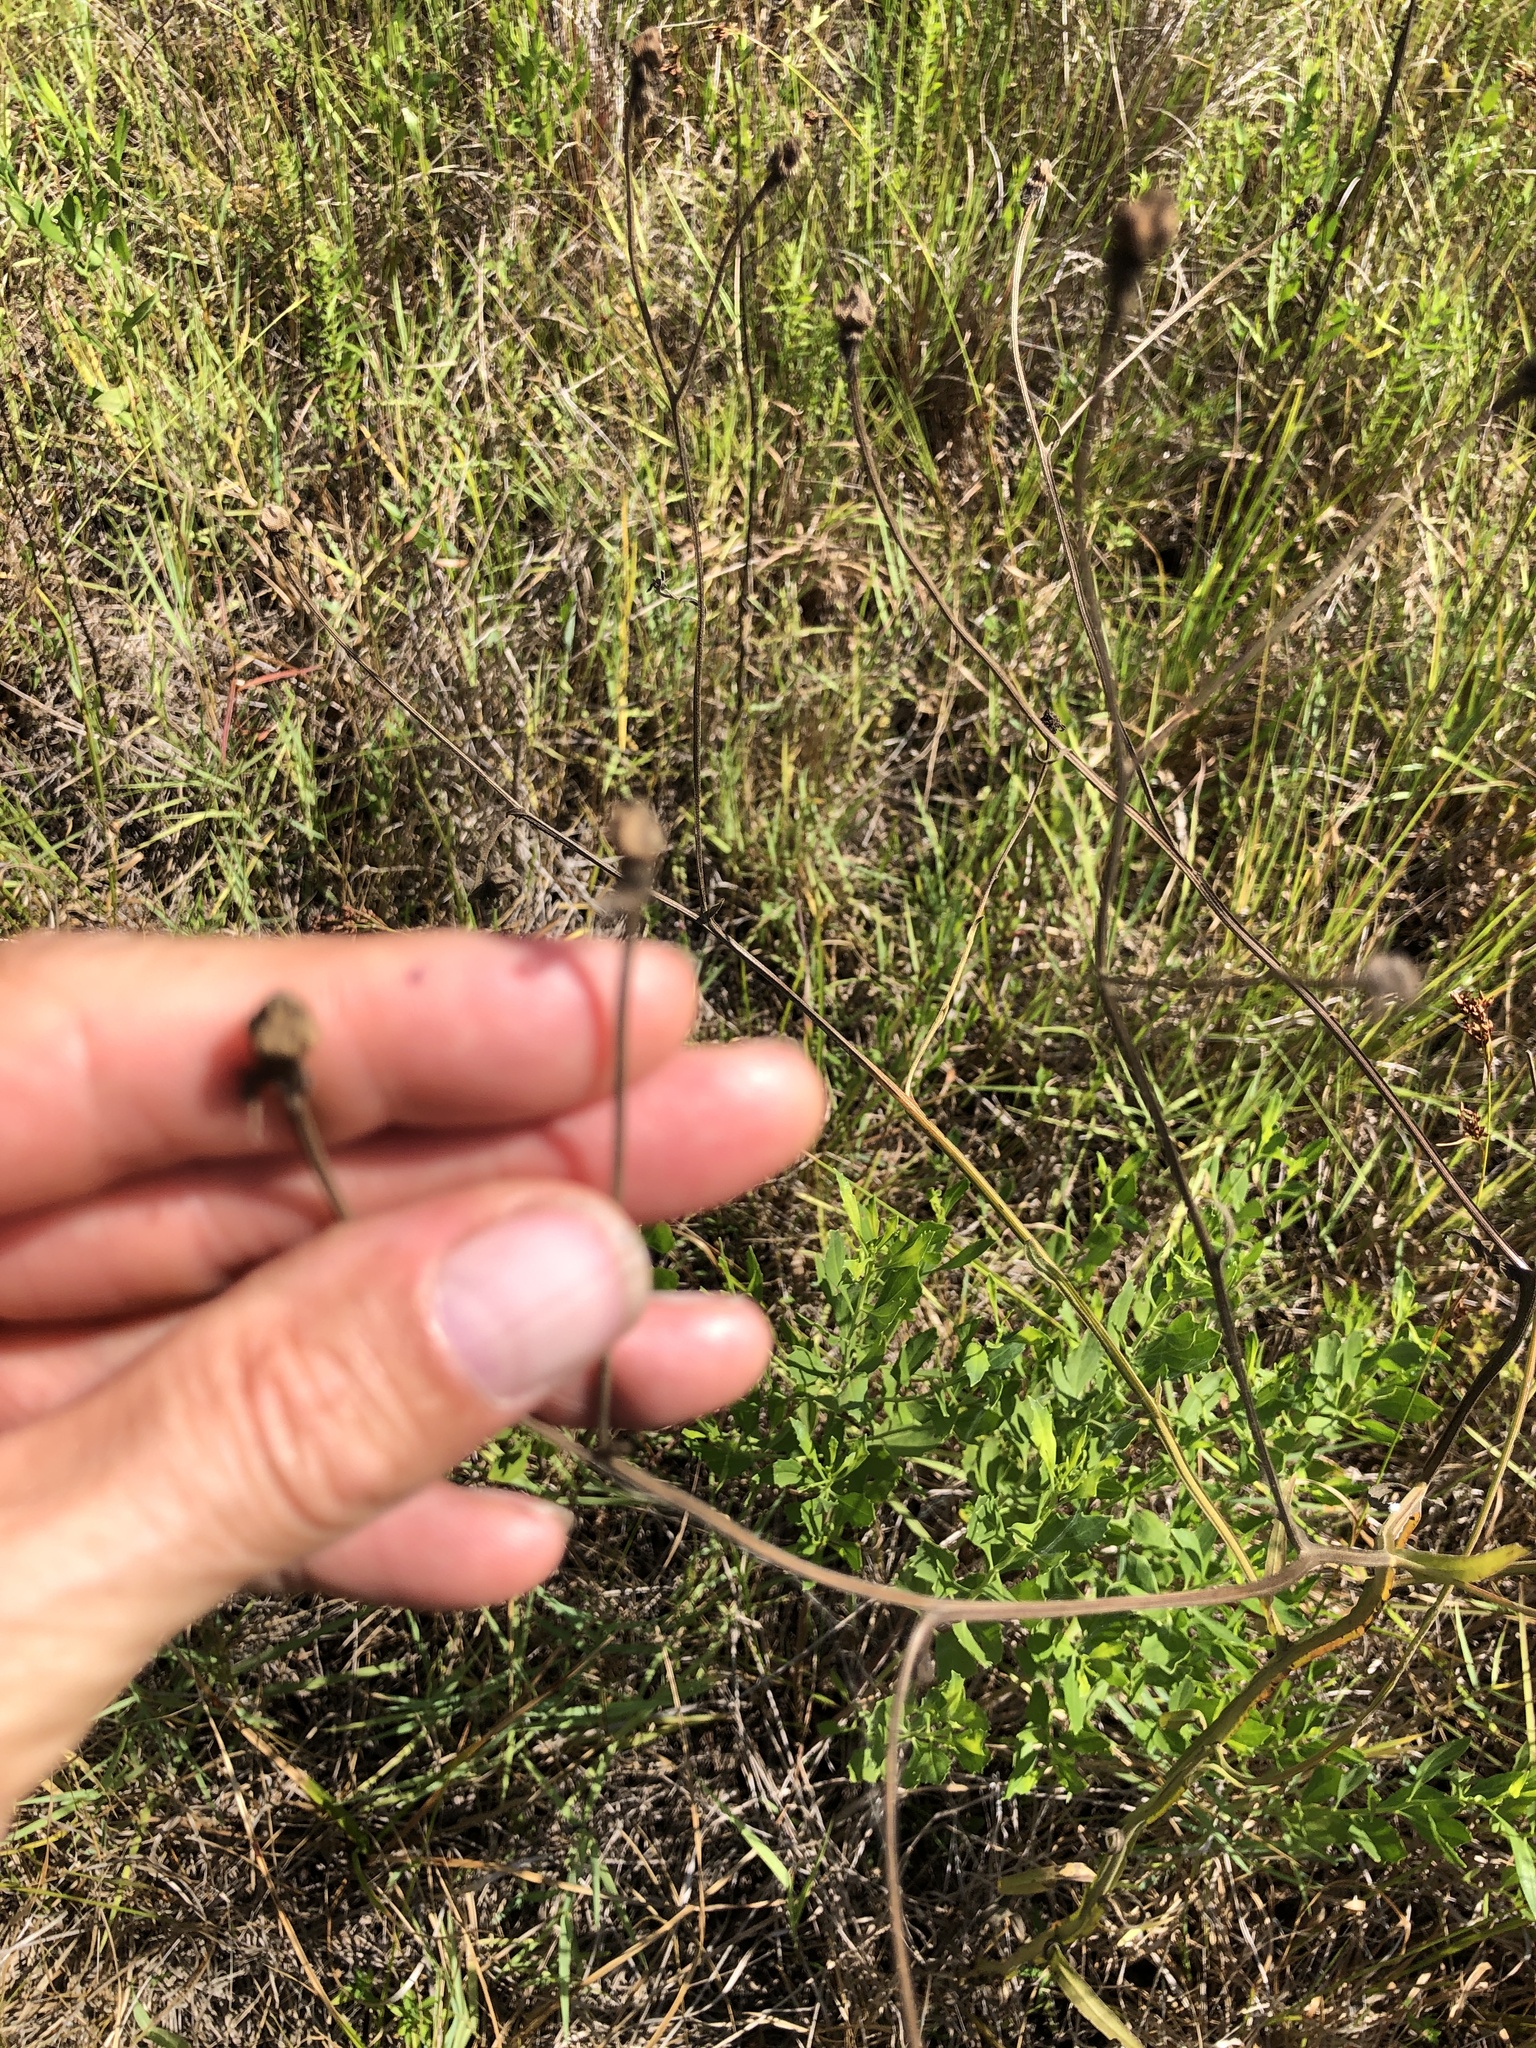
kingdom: Plantae
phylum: Tracheophyta
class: Magnoliopsida
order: Asterales
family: Asteraceae
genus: Helenium
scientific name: Helenium flexuosum
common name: Naked-flowered sneezeweed
